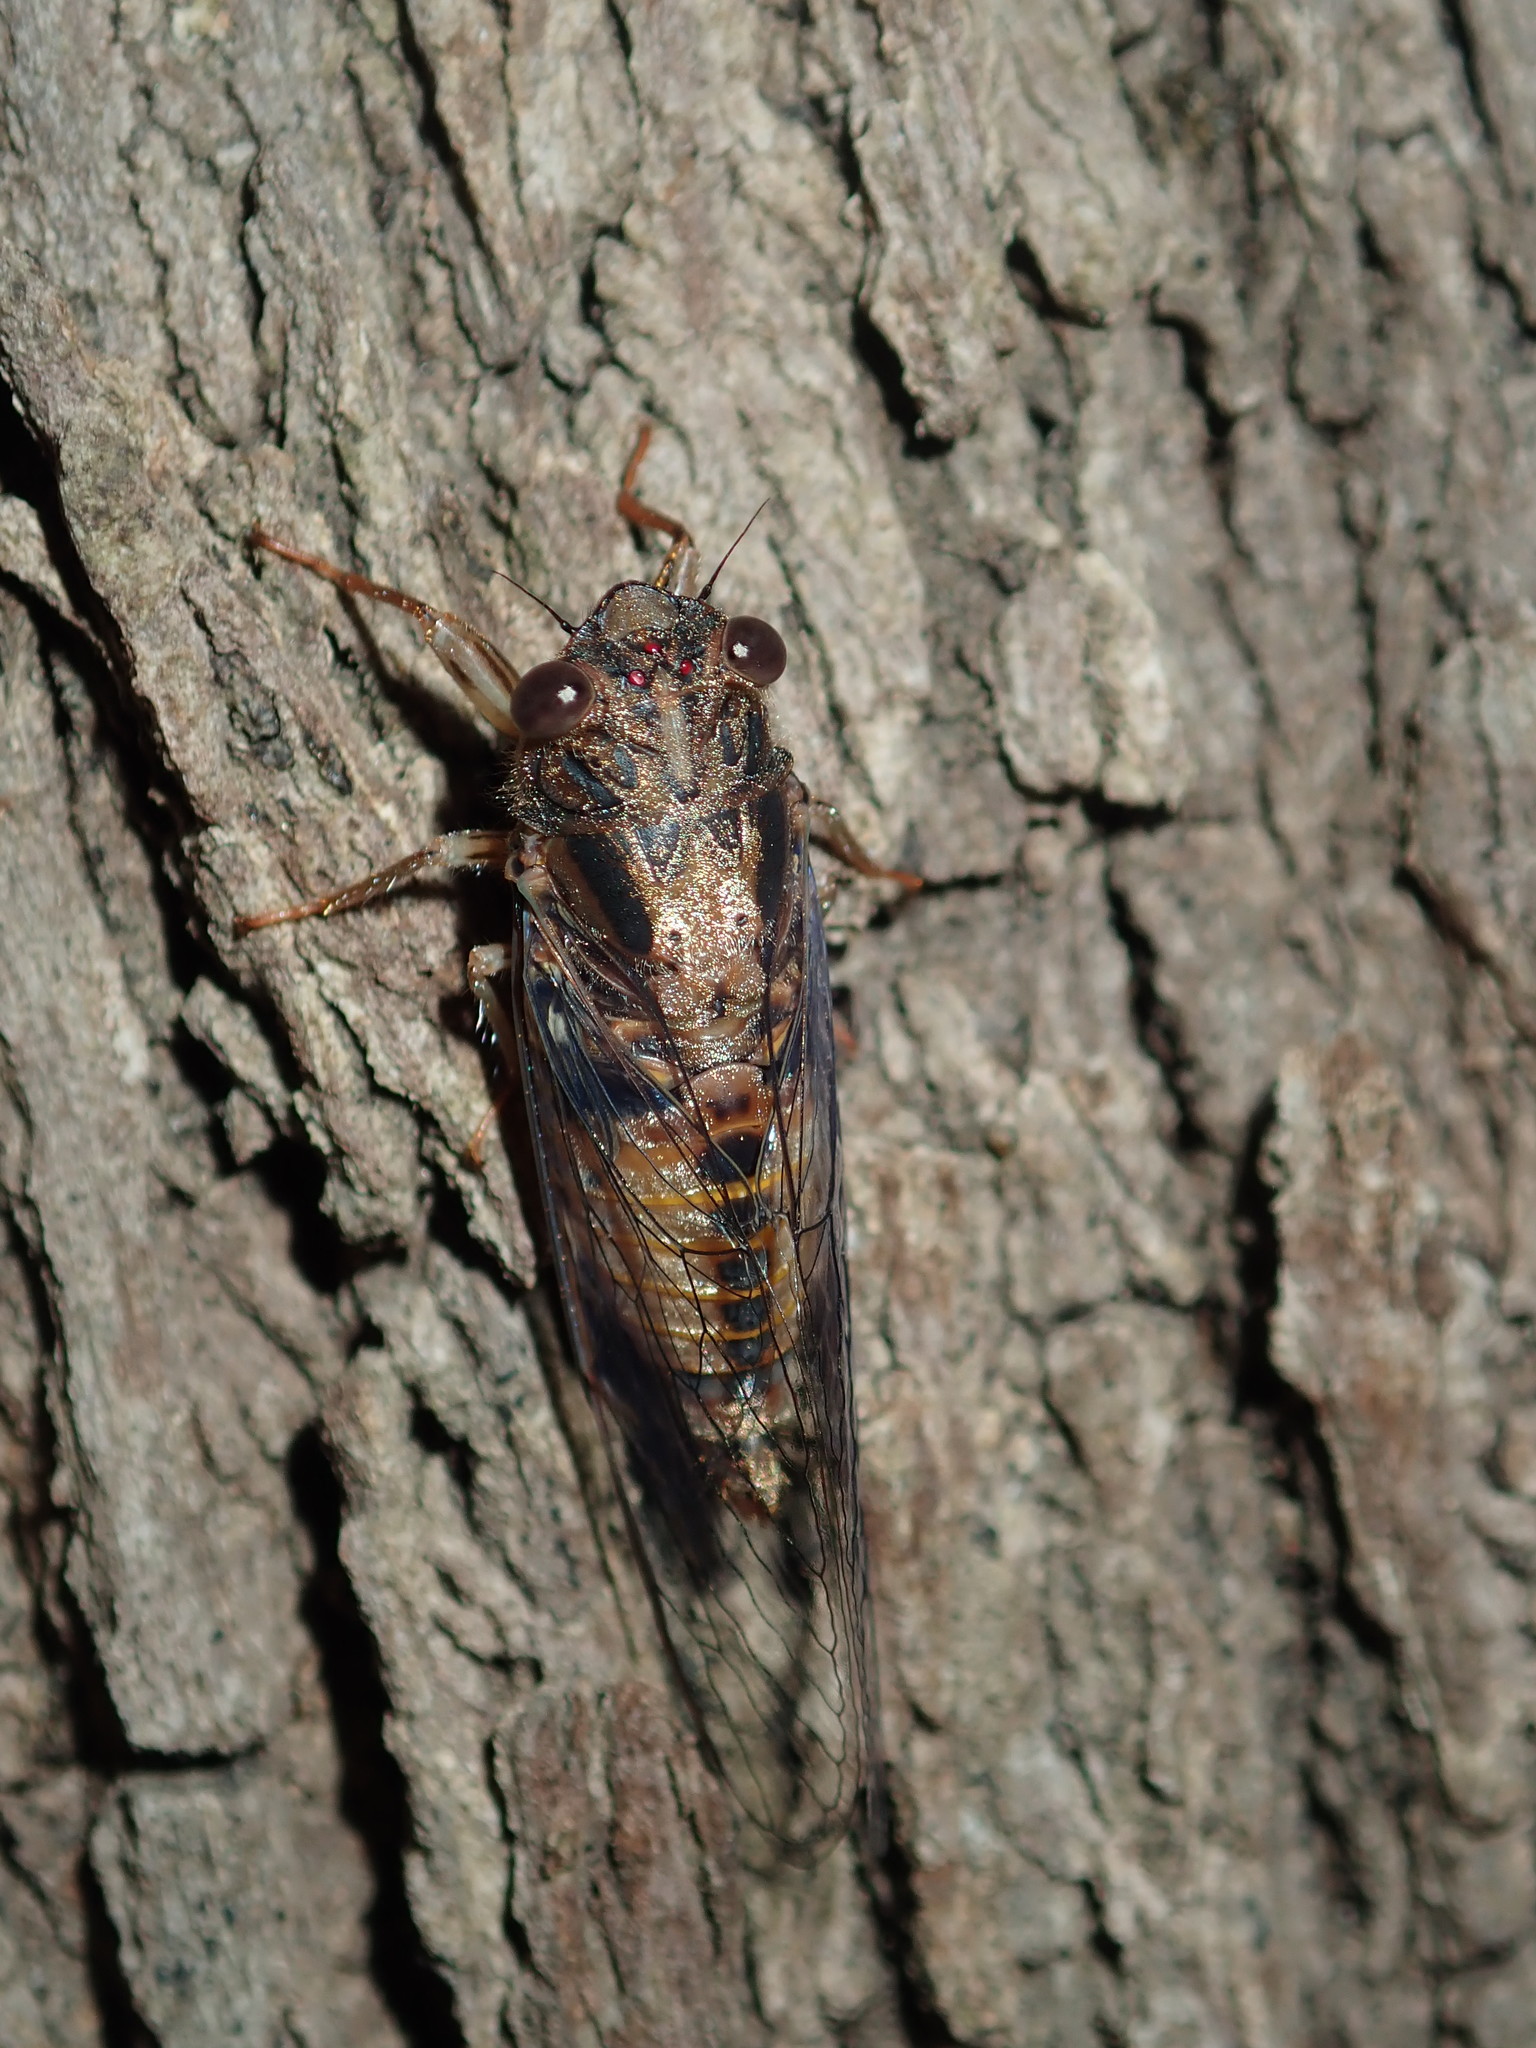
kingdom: Animalia
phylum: Arthropoda
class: Insecta
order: Hemiptera
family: Cicadidae
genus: Yoyetta
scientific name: Yoyetta repetens
